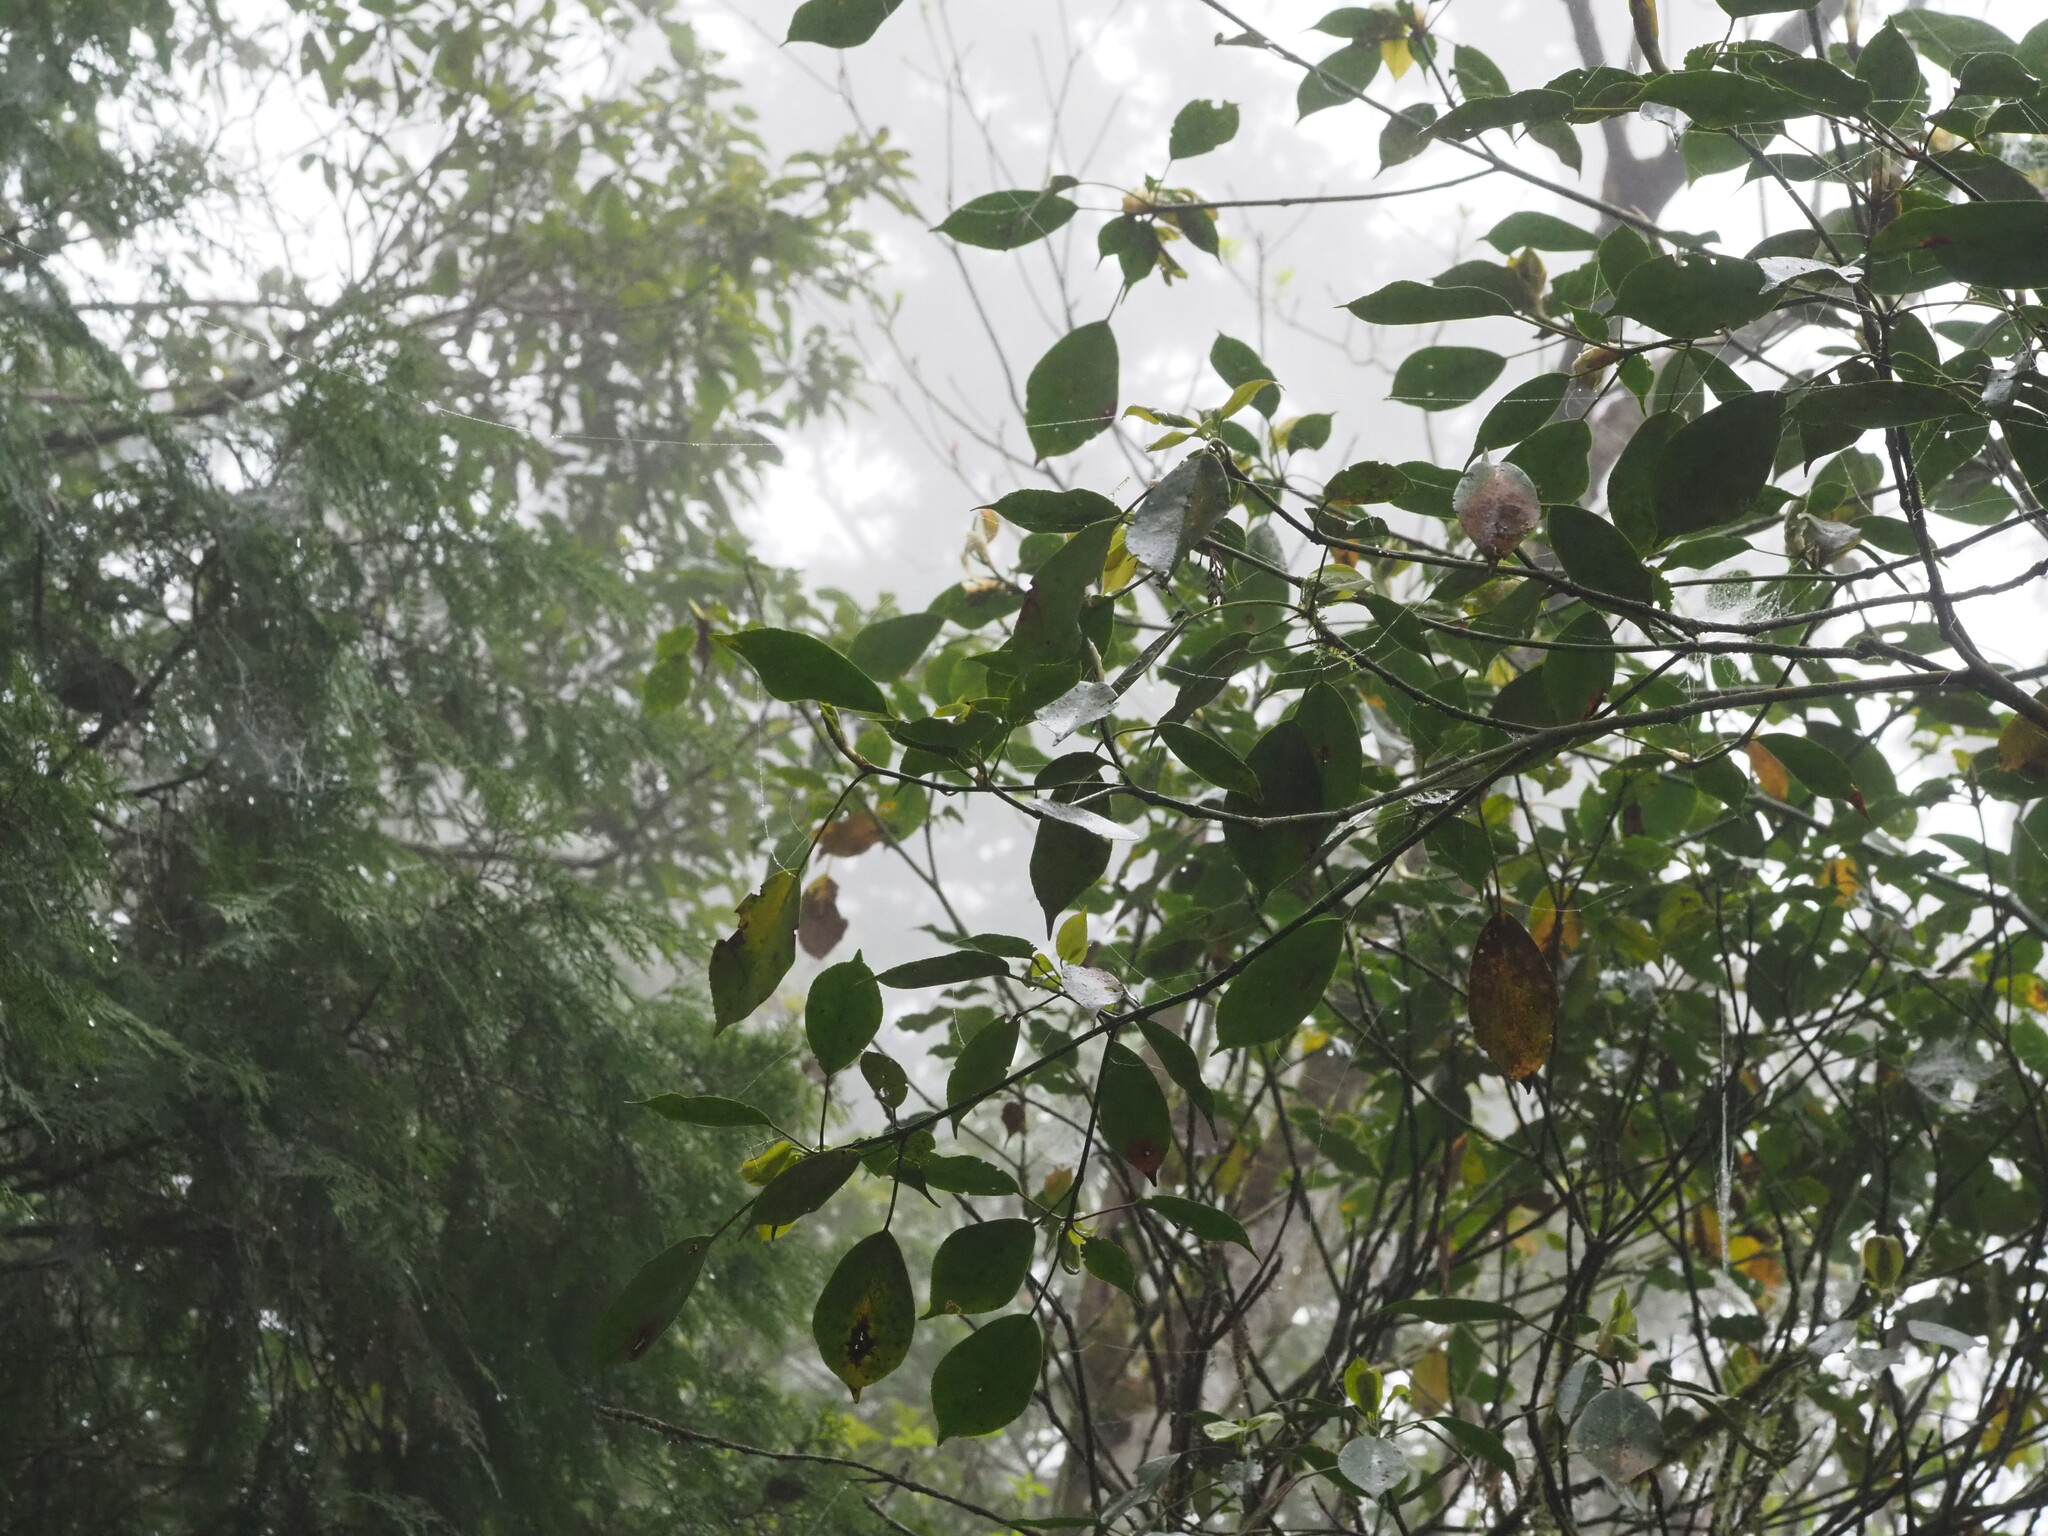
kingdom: Plantae
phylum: Tracheophyta
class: Magnoliopsida
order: Trochodendrales
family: Trochodendraceae
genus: Trochodendron
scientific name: Trochodendron aralioides
